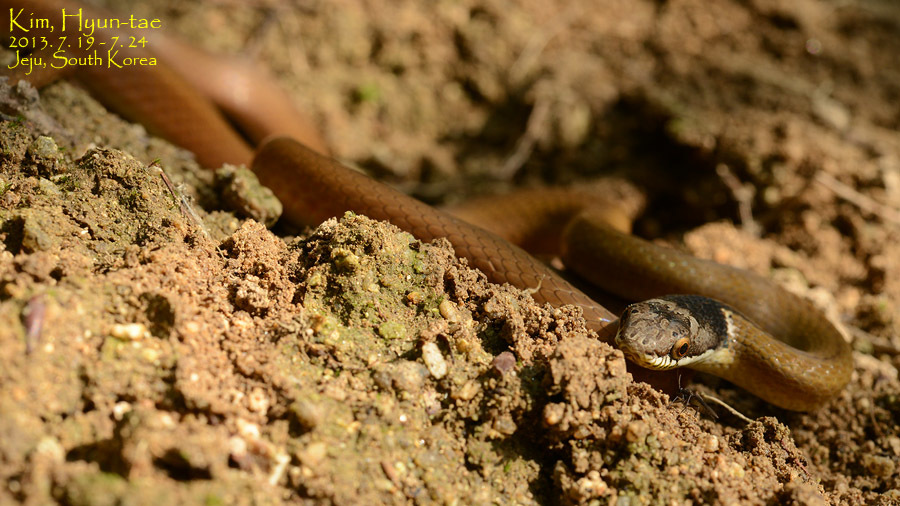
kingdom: Animalia
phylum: Chordata
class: Squamata
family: Colubridae
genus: Sibynophis
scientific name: Sibynophis chinensis
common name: Chinese many-tooth snake
